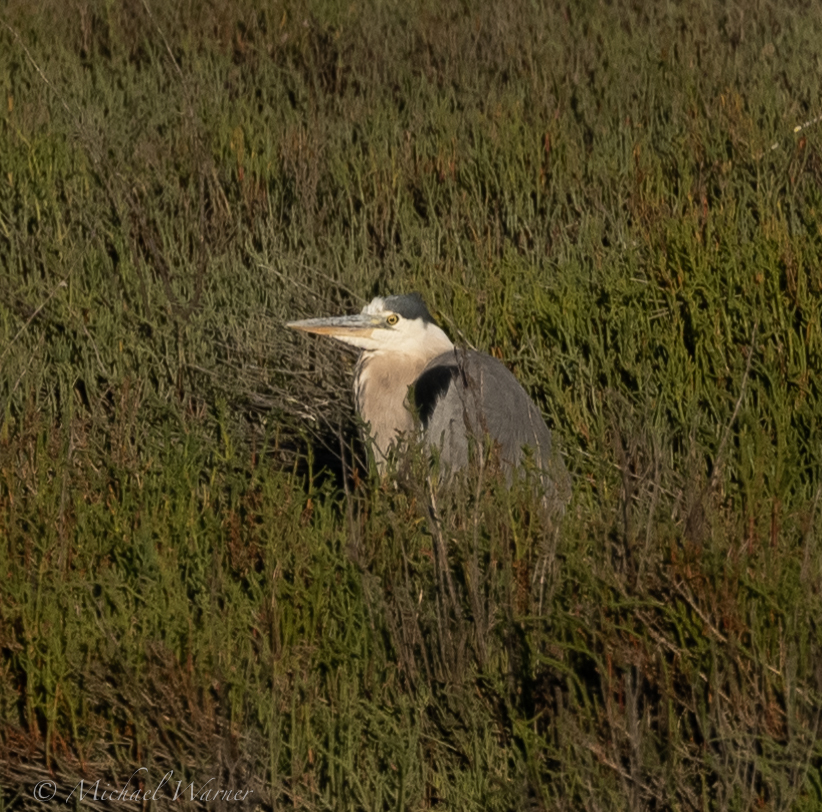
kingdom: Animalia
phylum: Chordata
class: Aves
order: Pelecaniformes
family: Ardeidae
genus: Ardea
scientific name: Ardea herodias
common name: Great blue heron
